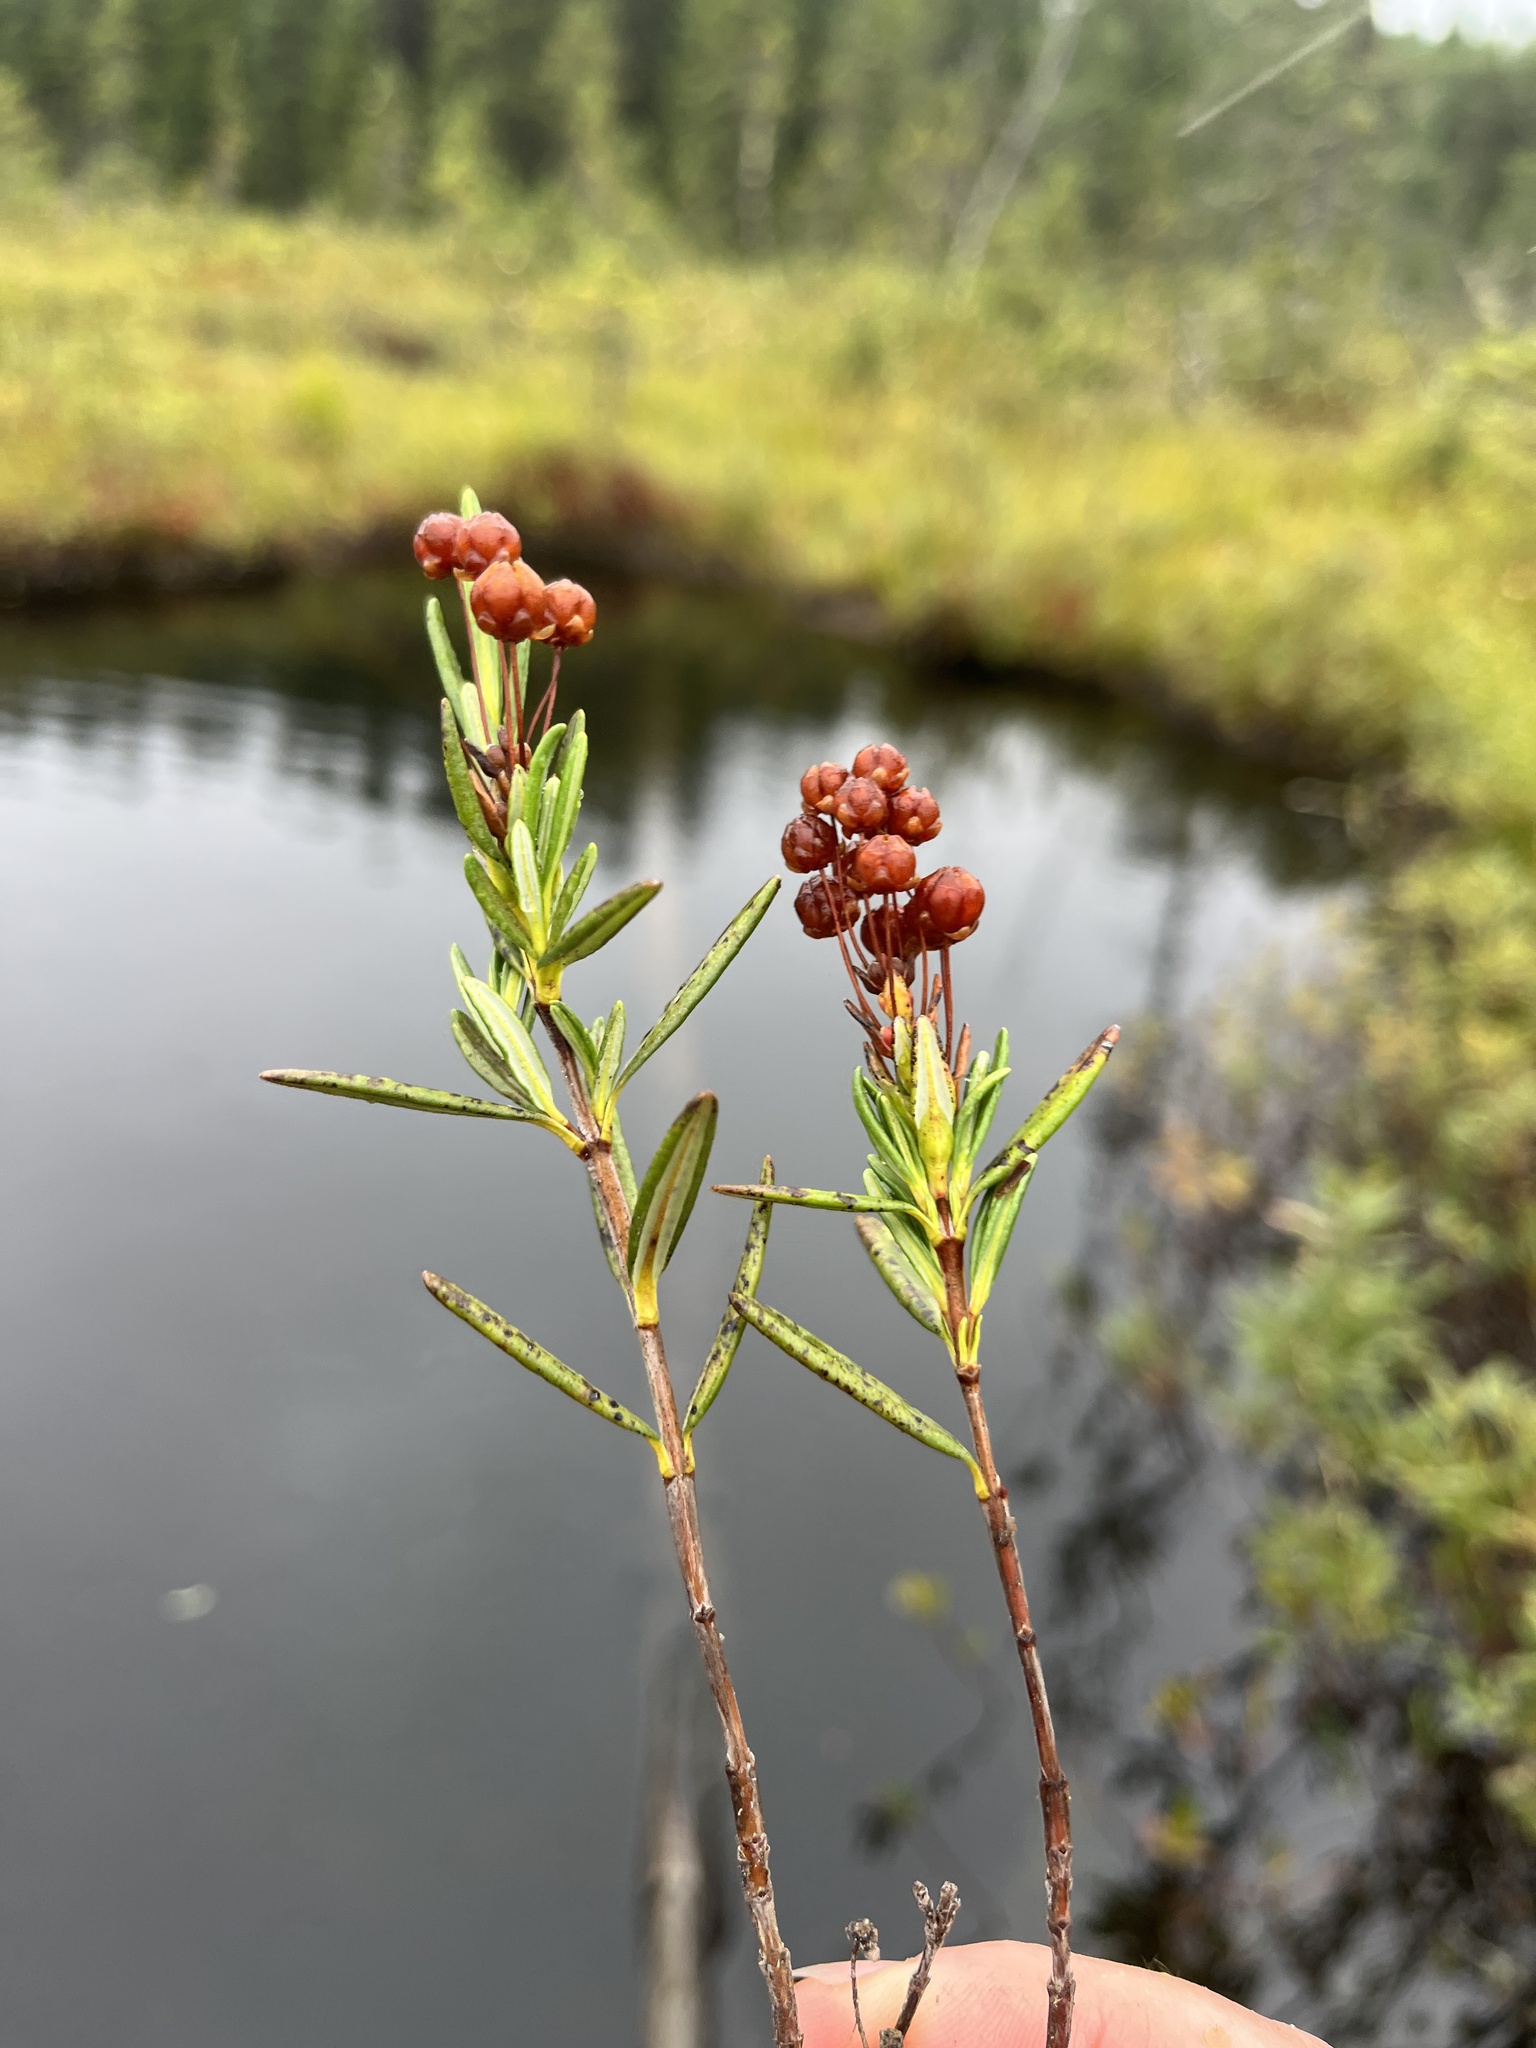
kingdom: Plantae
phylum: Tracheophyta
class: Magnoliopsida
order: Ericales
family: Ericaceae
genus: Kalmia
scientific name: Kalmia polifolia
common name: Bog-laurel
